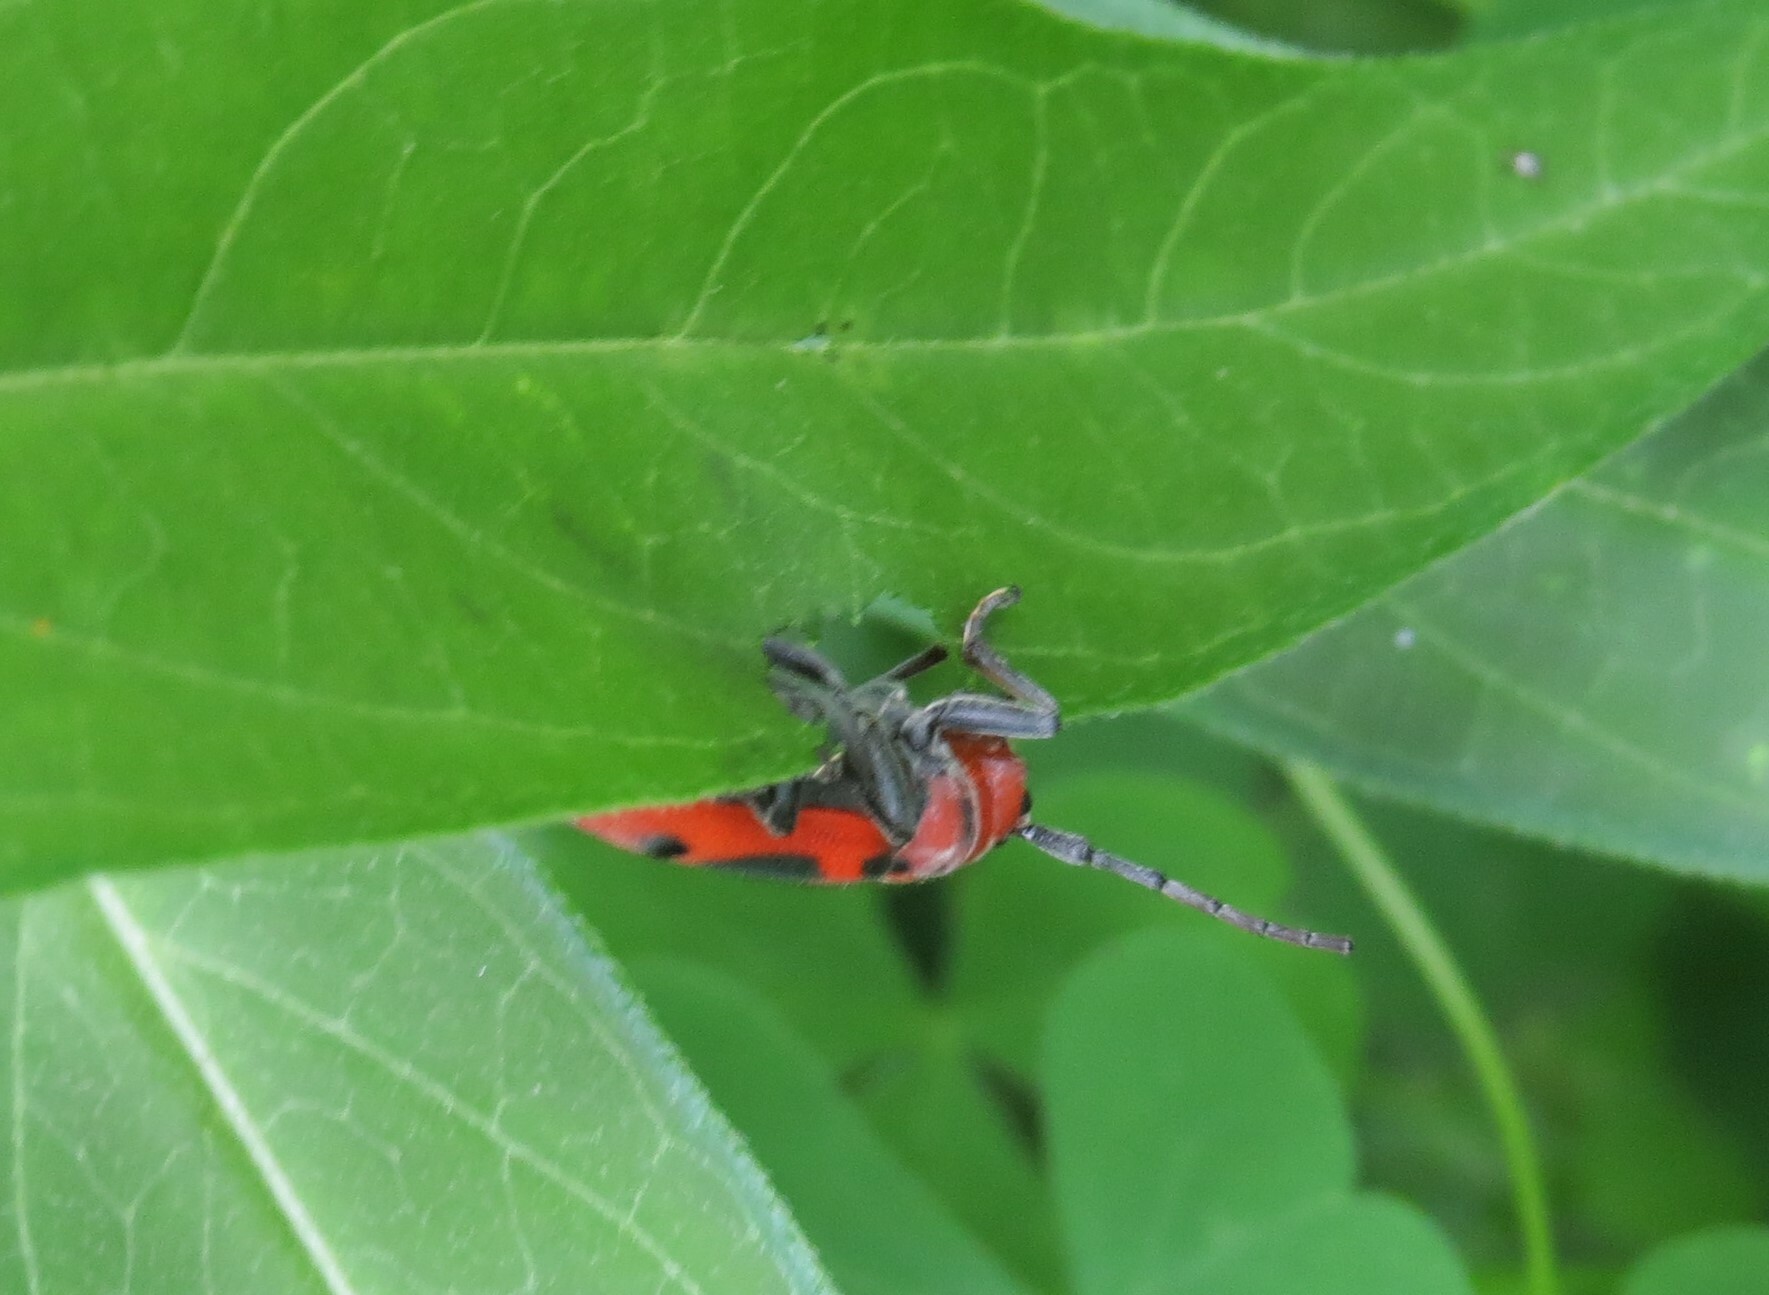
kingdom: Animalia
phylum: Arthropoda
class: Insecta
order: Coleoptera
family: Cerambycidae
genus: Tetraopes
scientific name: Tetraopes tetrophthalmus
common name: Red milkweed beetle
